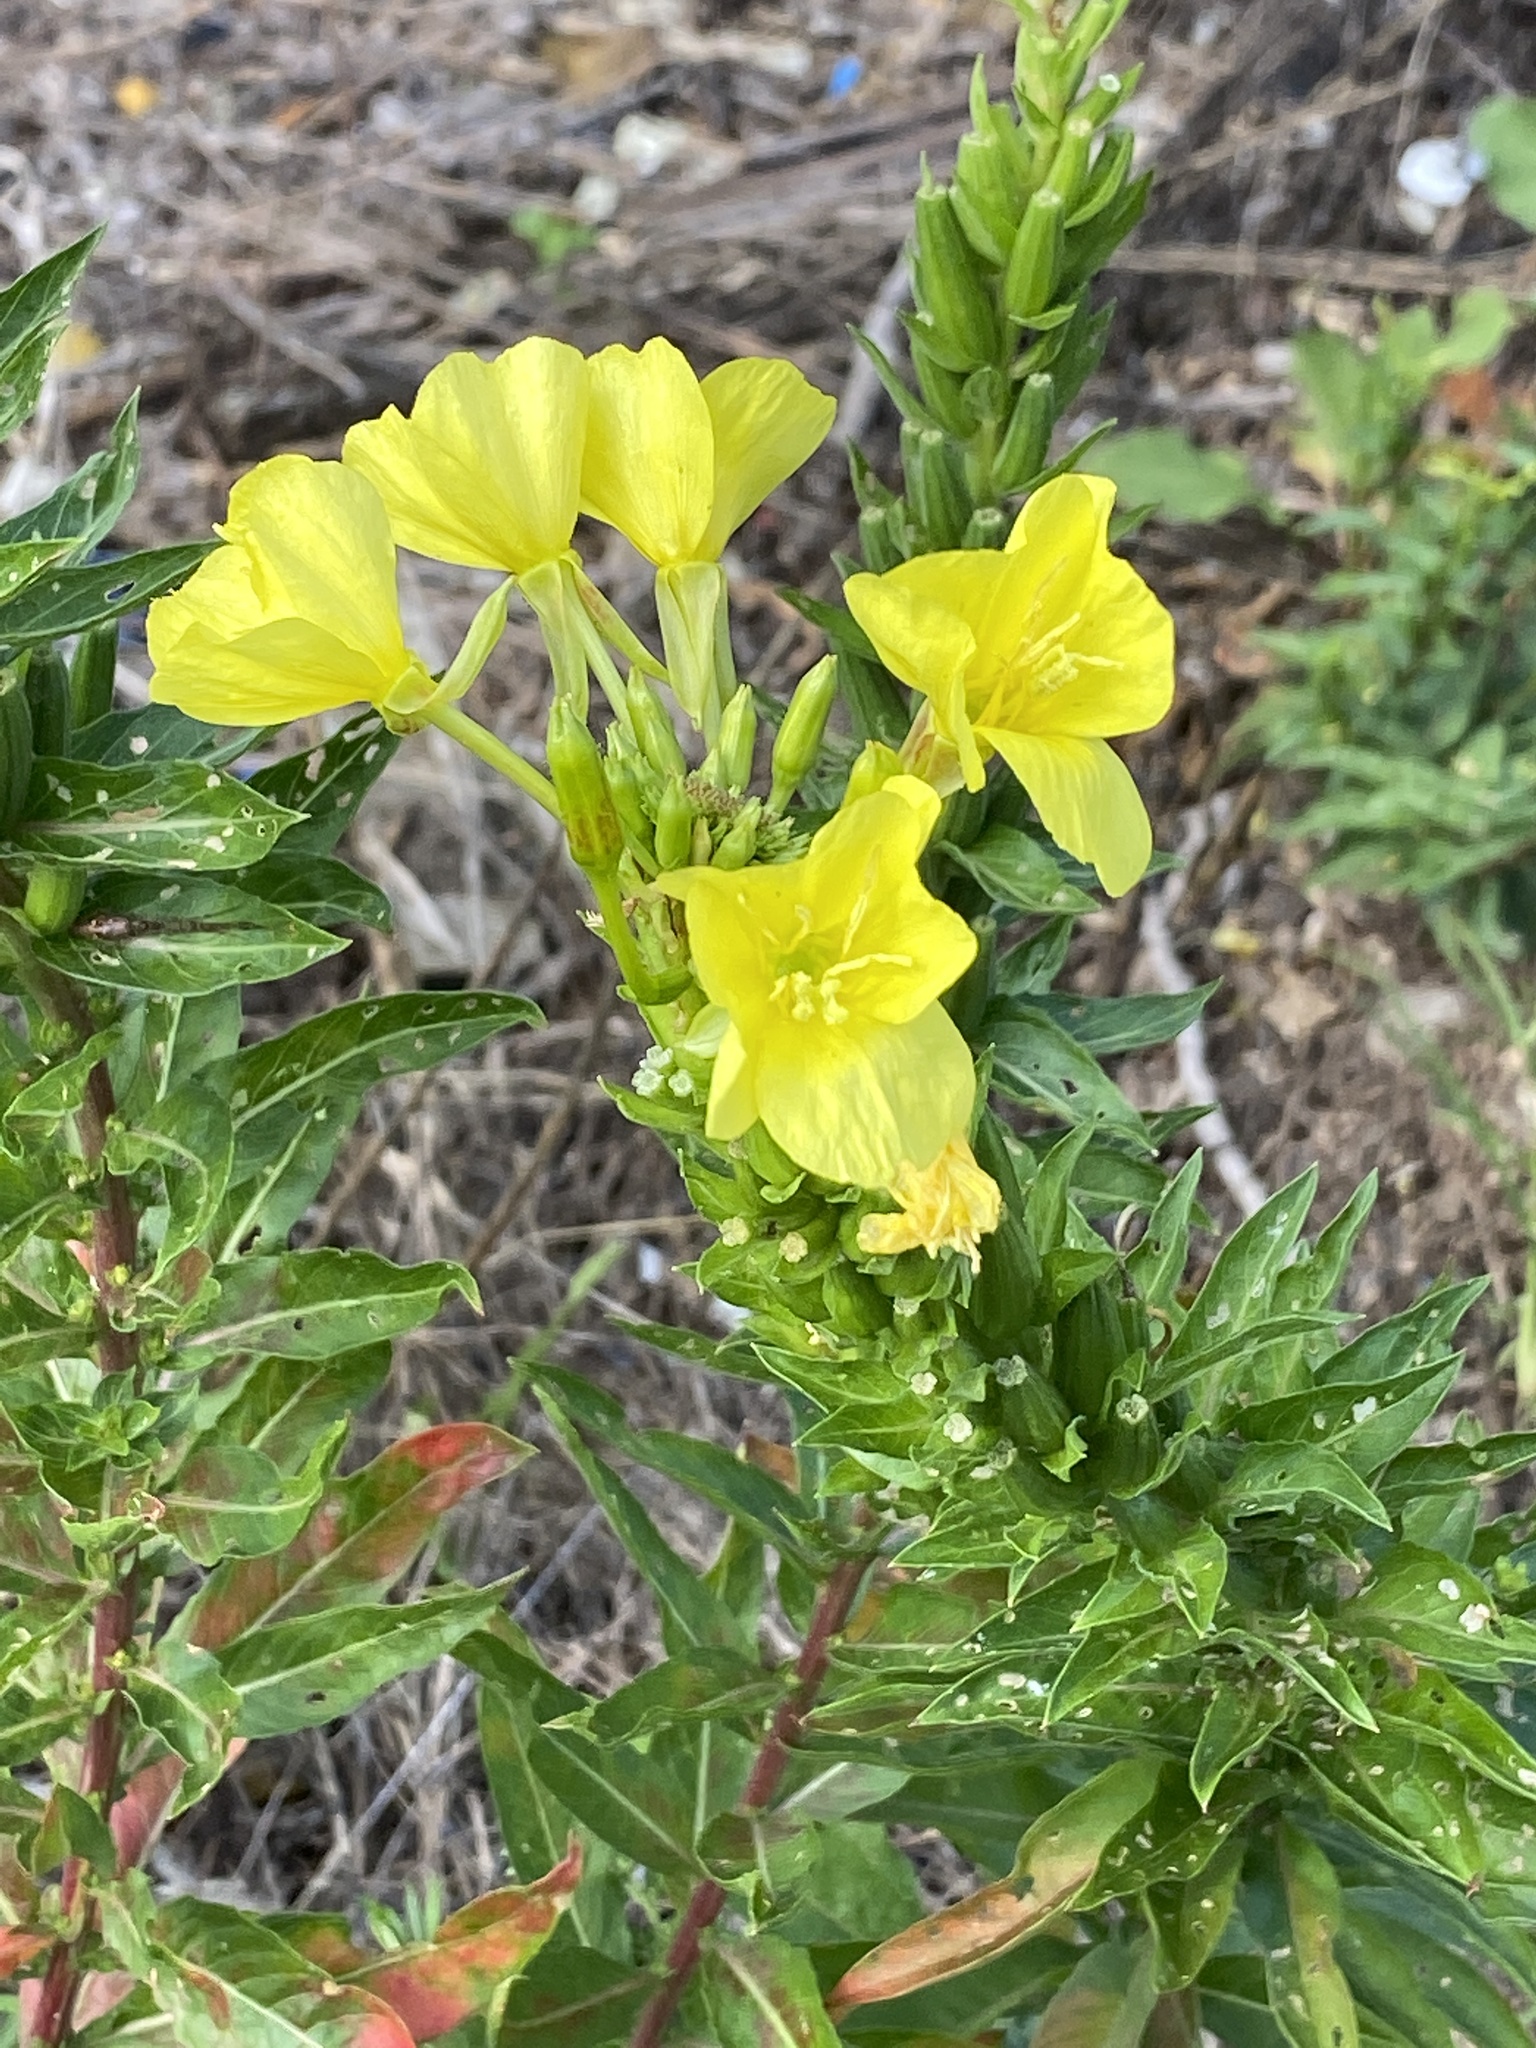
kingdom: Plantae
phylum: Tracheophyta
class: Magnoliopsida
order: Myrtales
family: Onagraceae
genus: Oenothera
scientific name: Oenothera biennis
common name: Common evening-primrose
